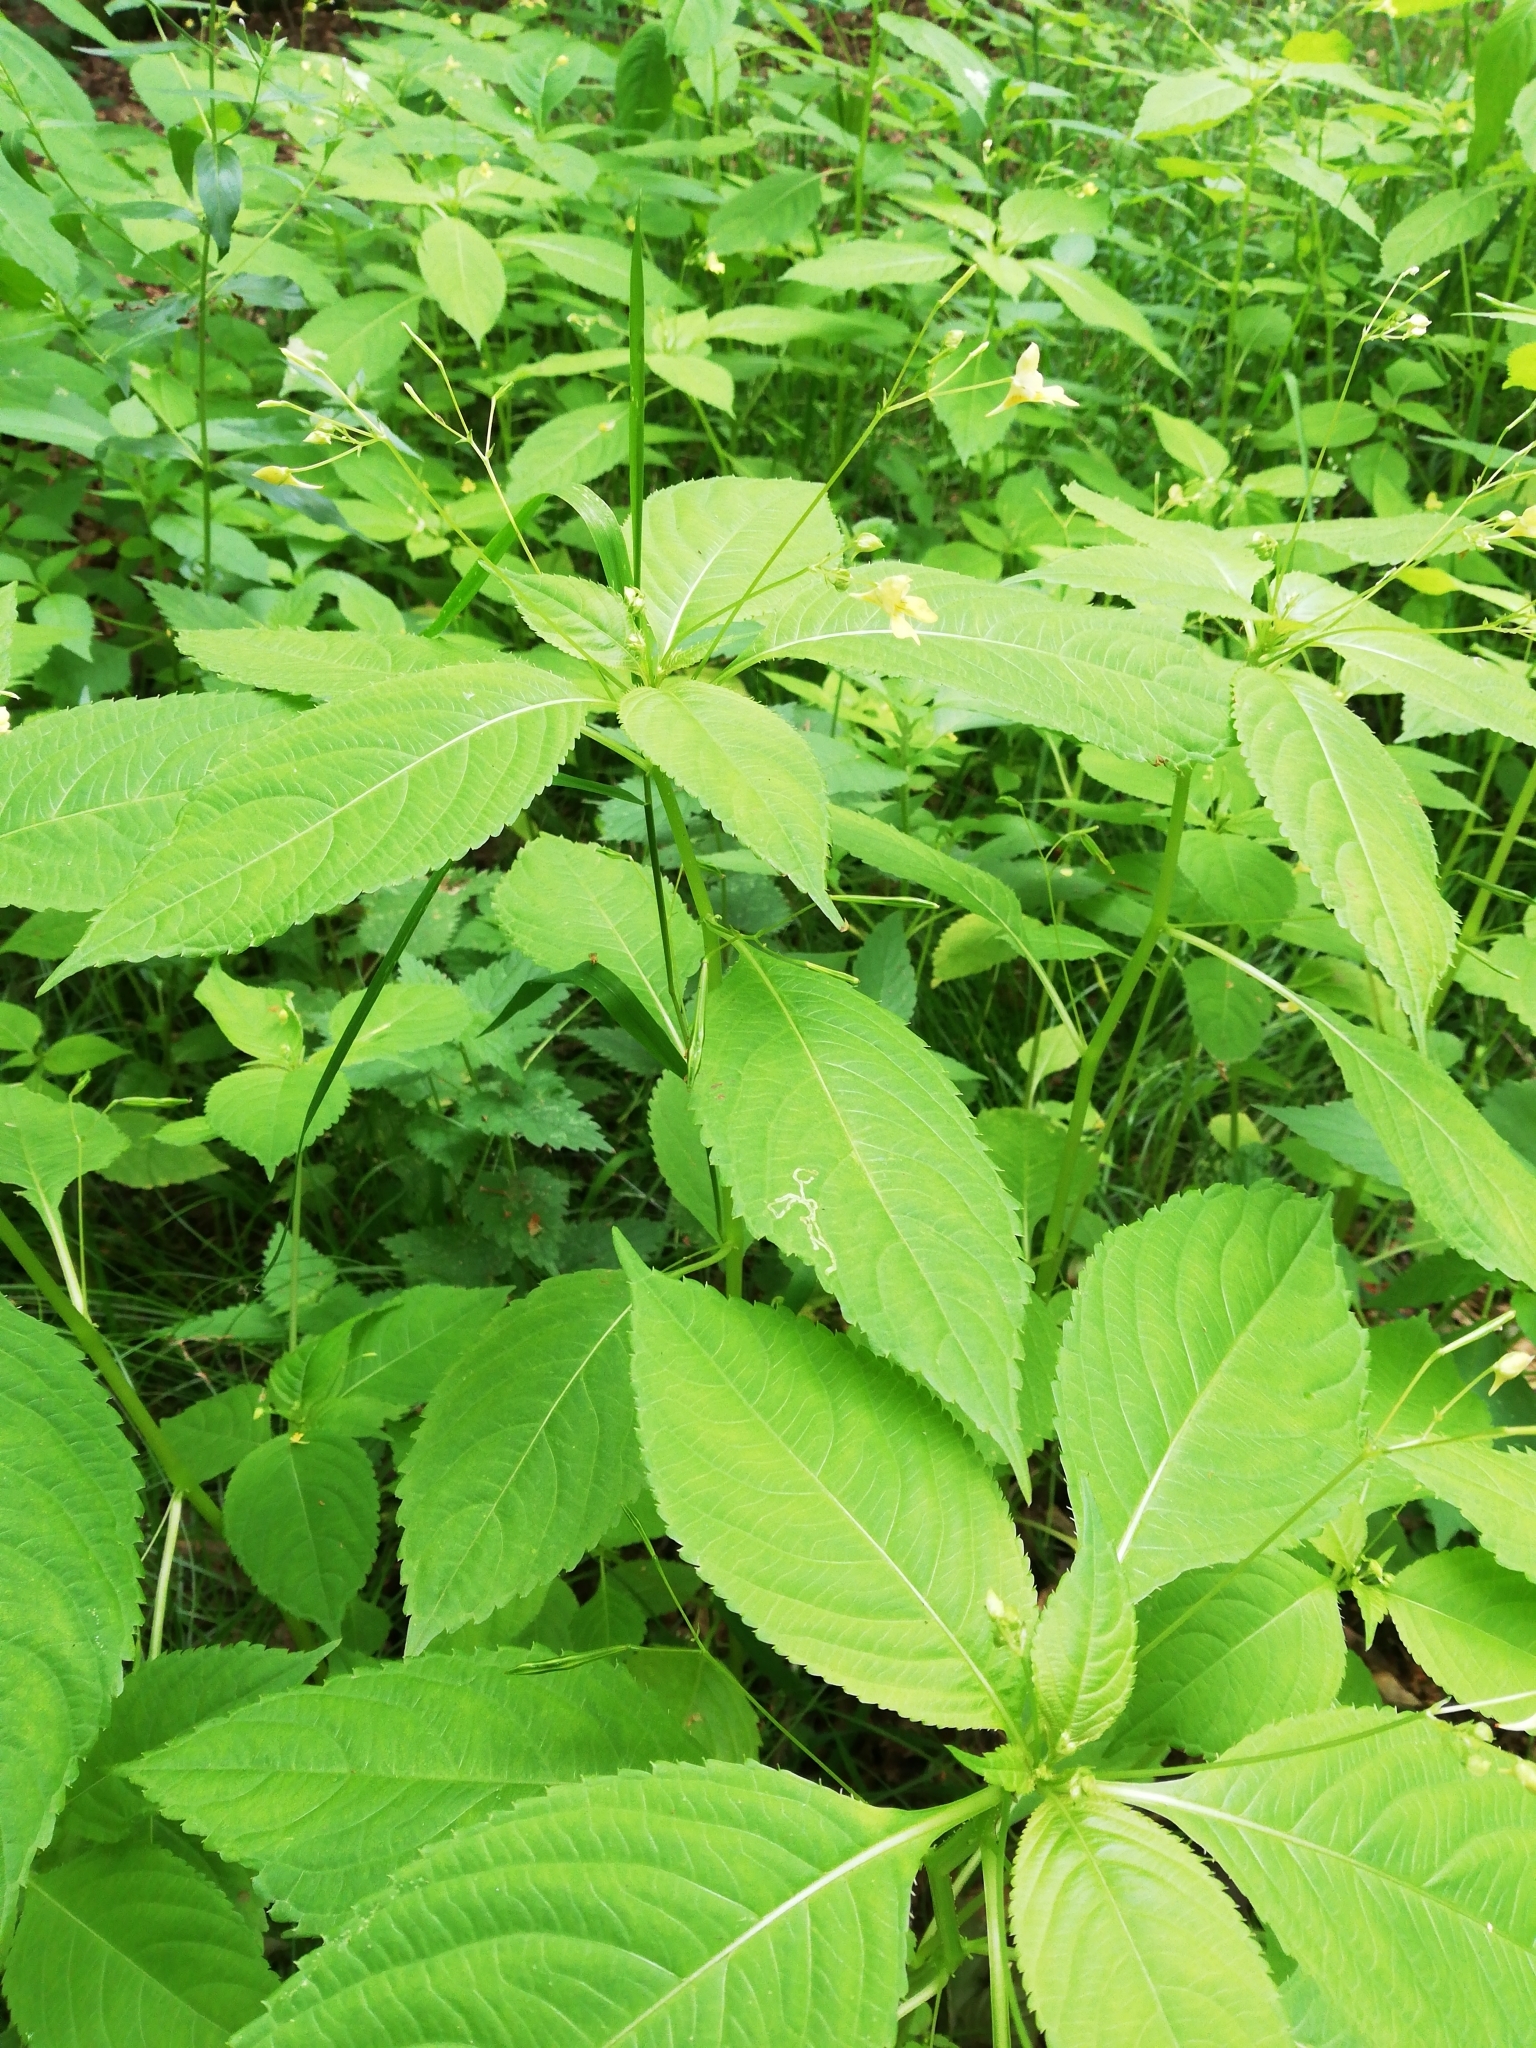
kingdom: Plantae
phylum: Tracheophyta
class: Magnoliopsida
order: Ericales
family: Balsaminaceae
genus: Impatiens
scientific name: Impatiens parviflora
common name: Small balsam
